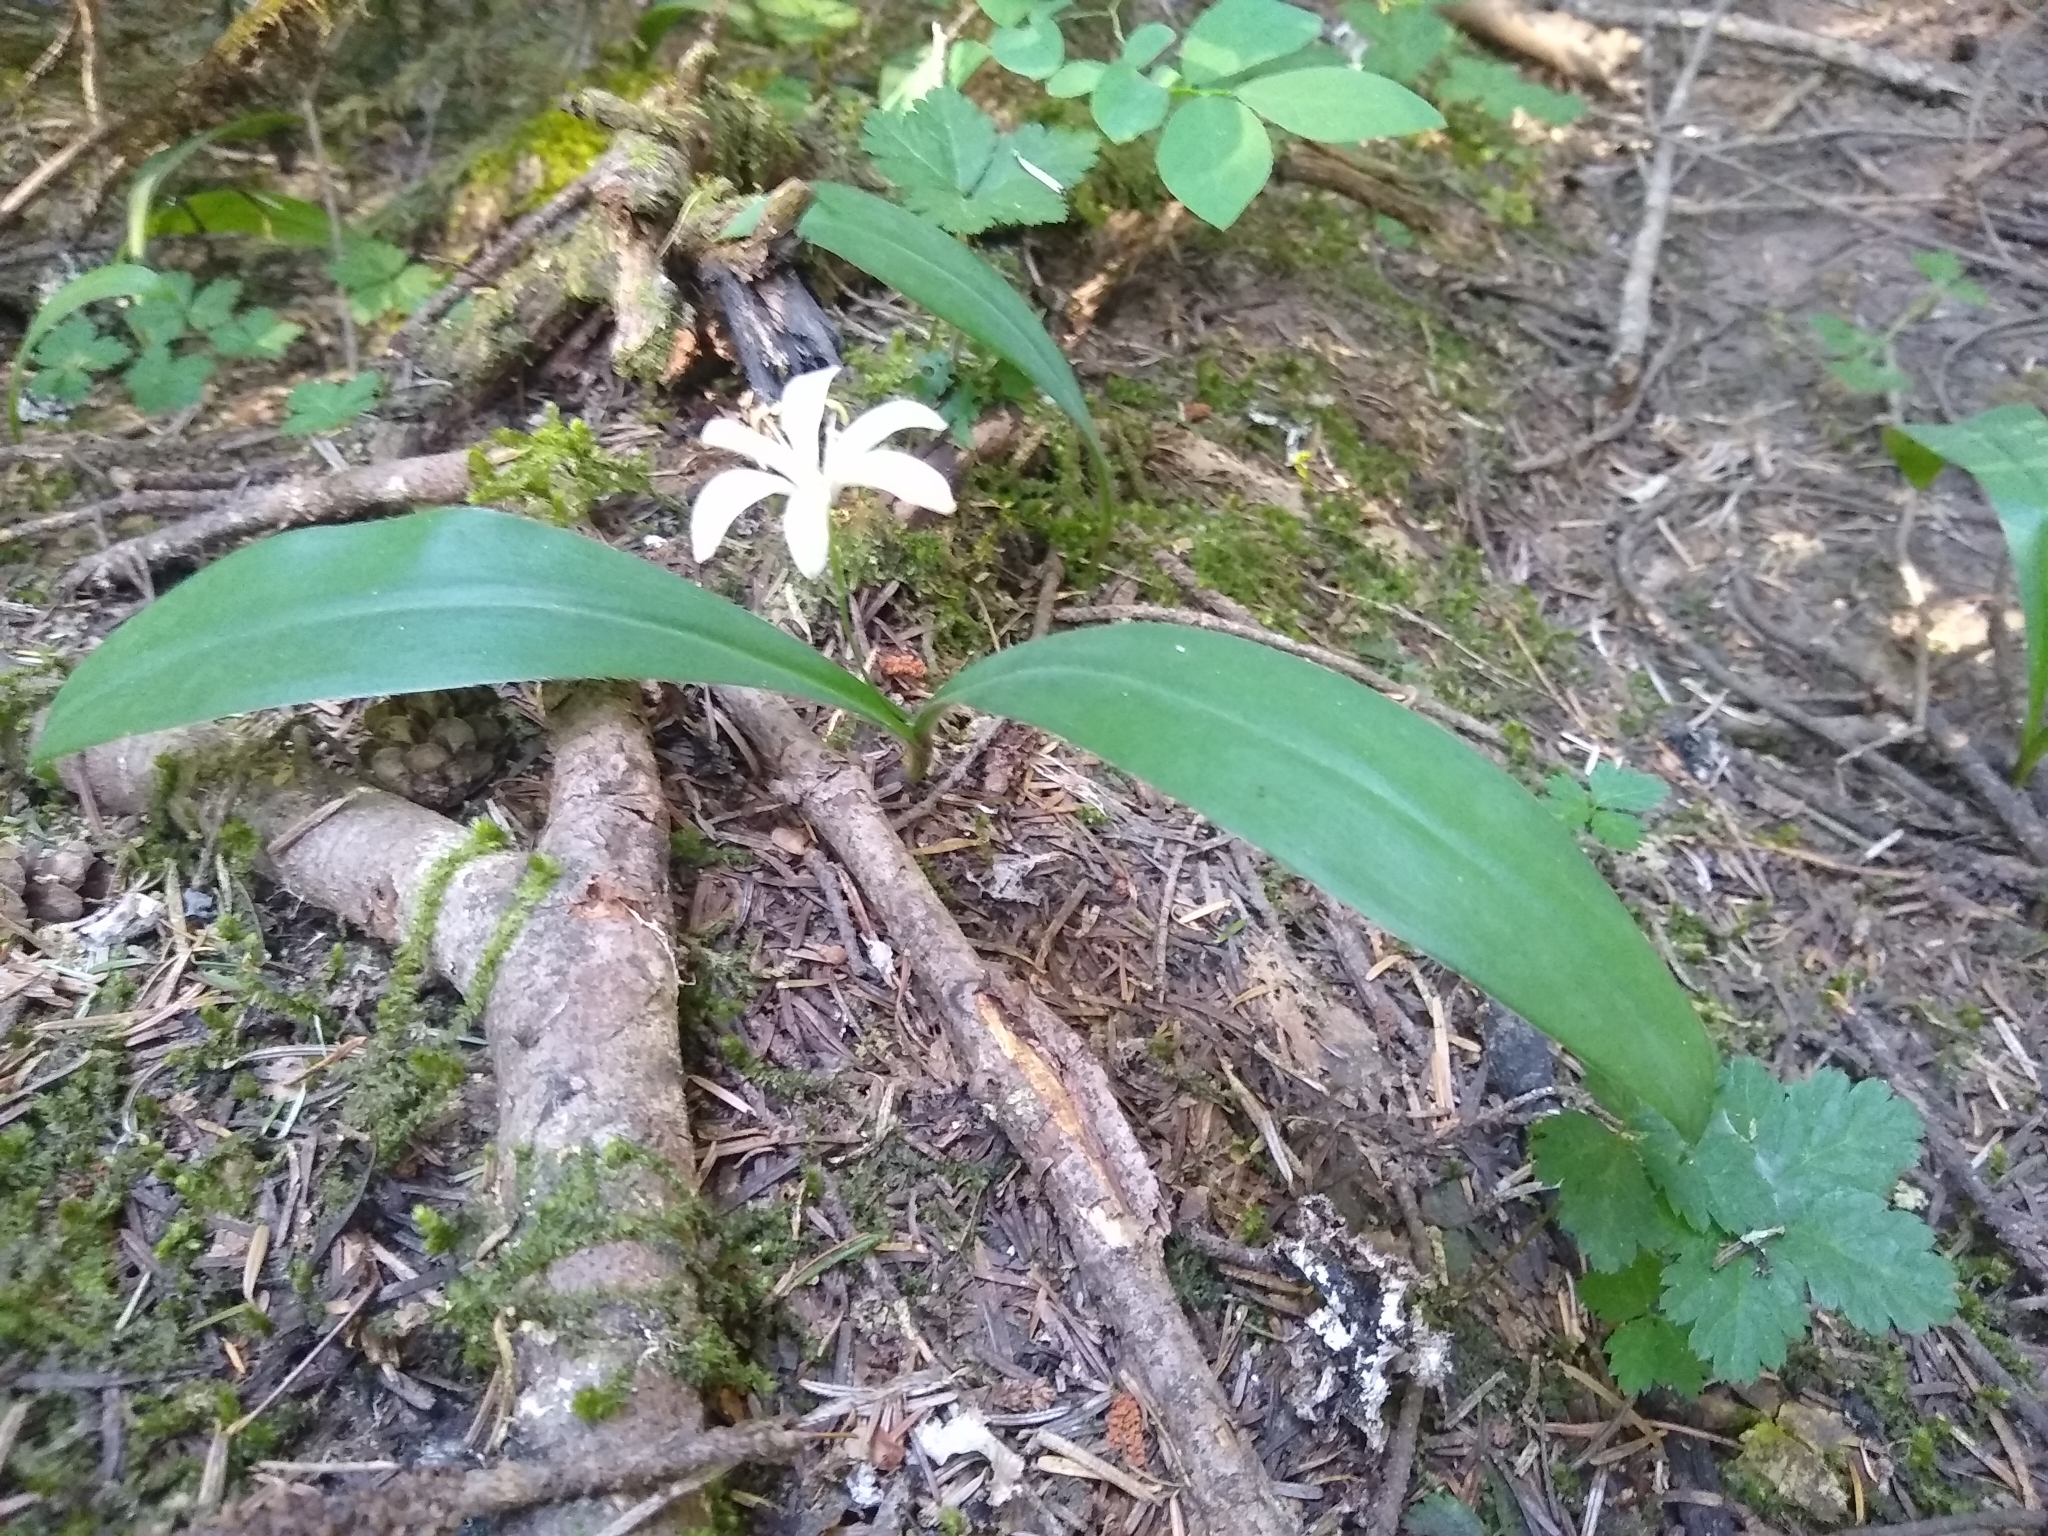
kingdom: Plantae
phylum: Tracheophyta
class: Liliopsida
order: Liliales
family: Liliaceae
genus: Clintonia
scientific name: Clintonia uniflora
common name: Queen's cup
